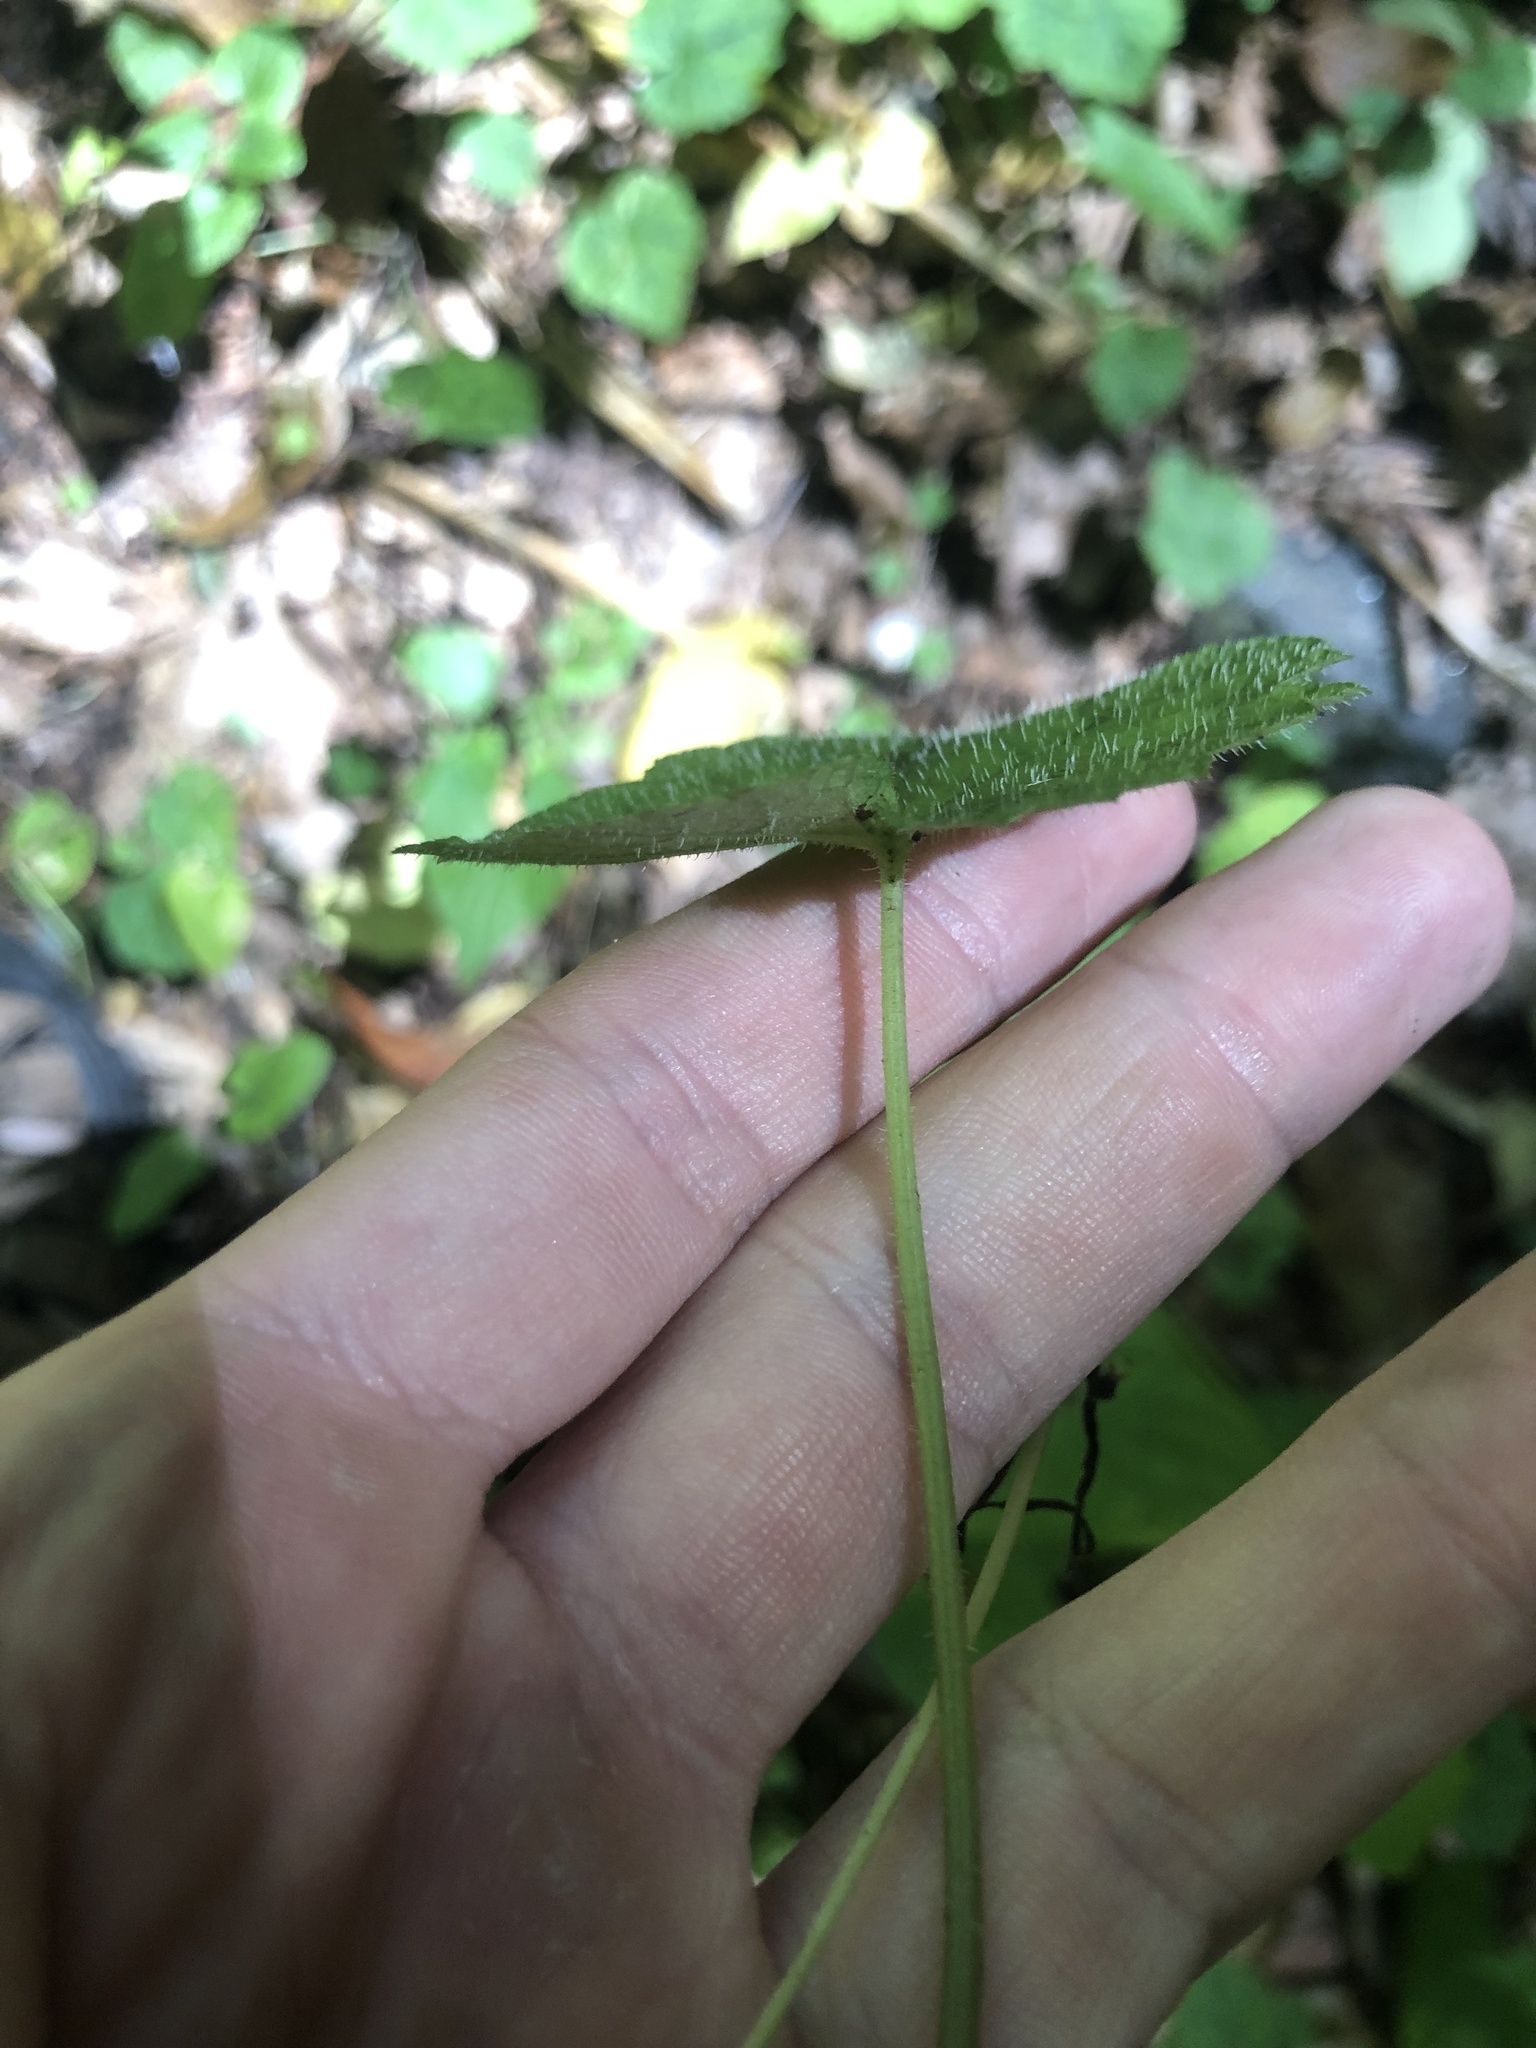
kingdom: Plantae
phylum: Tracheophyta
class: Magnoliopsida
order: Saxifragales
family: Saxifragaceae
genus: Tiarella
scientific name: Tiarella stolonifera
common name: Stoloniferous foamflower
